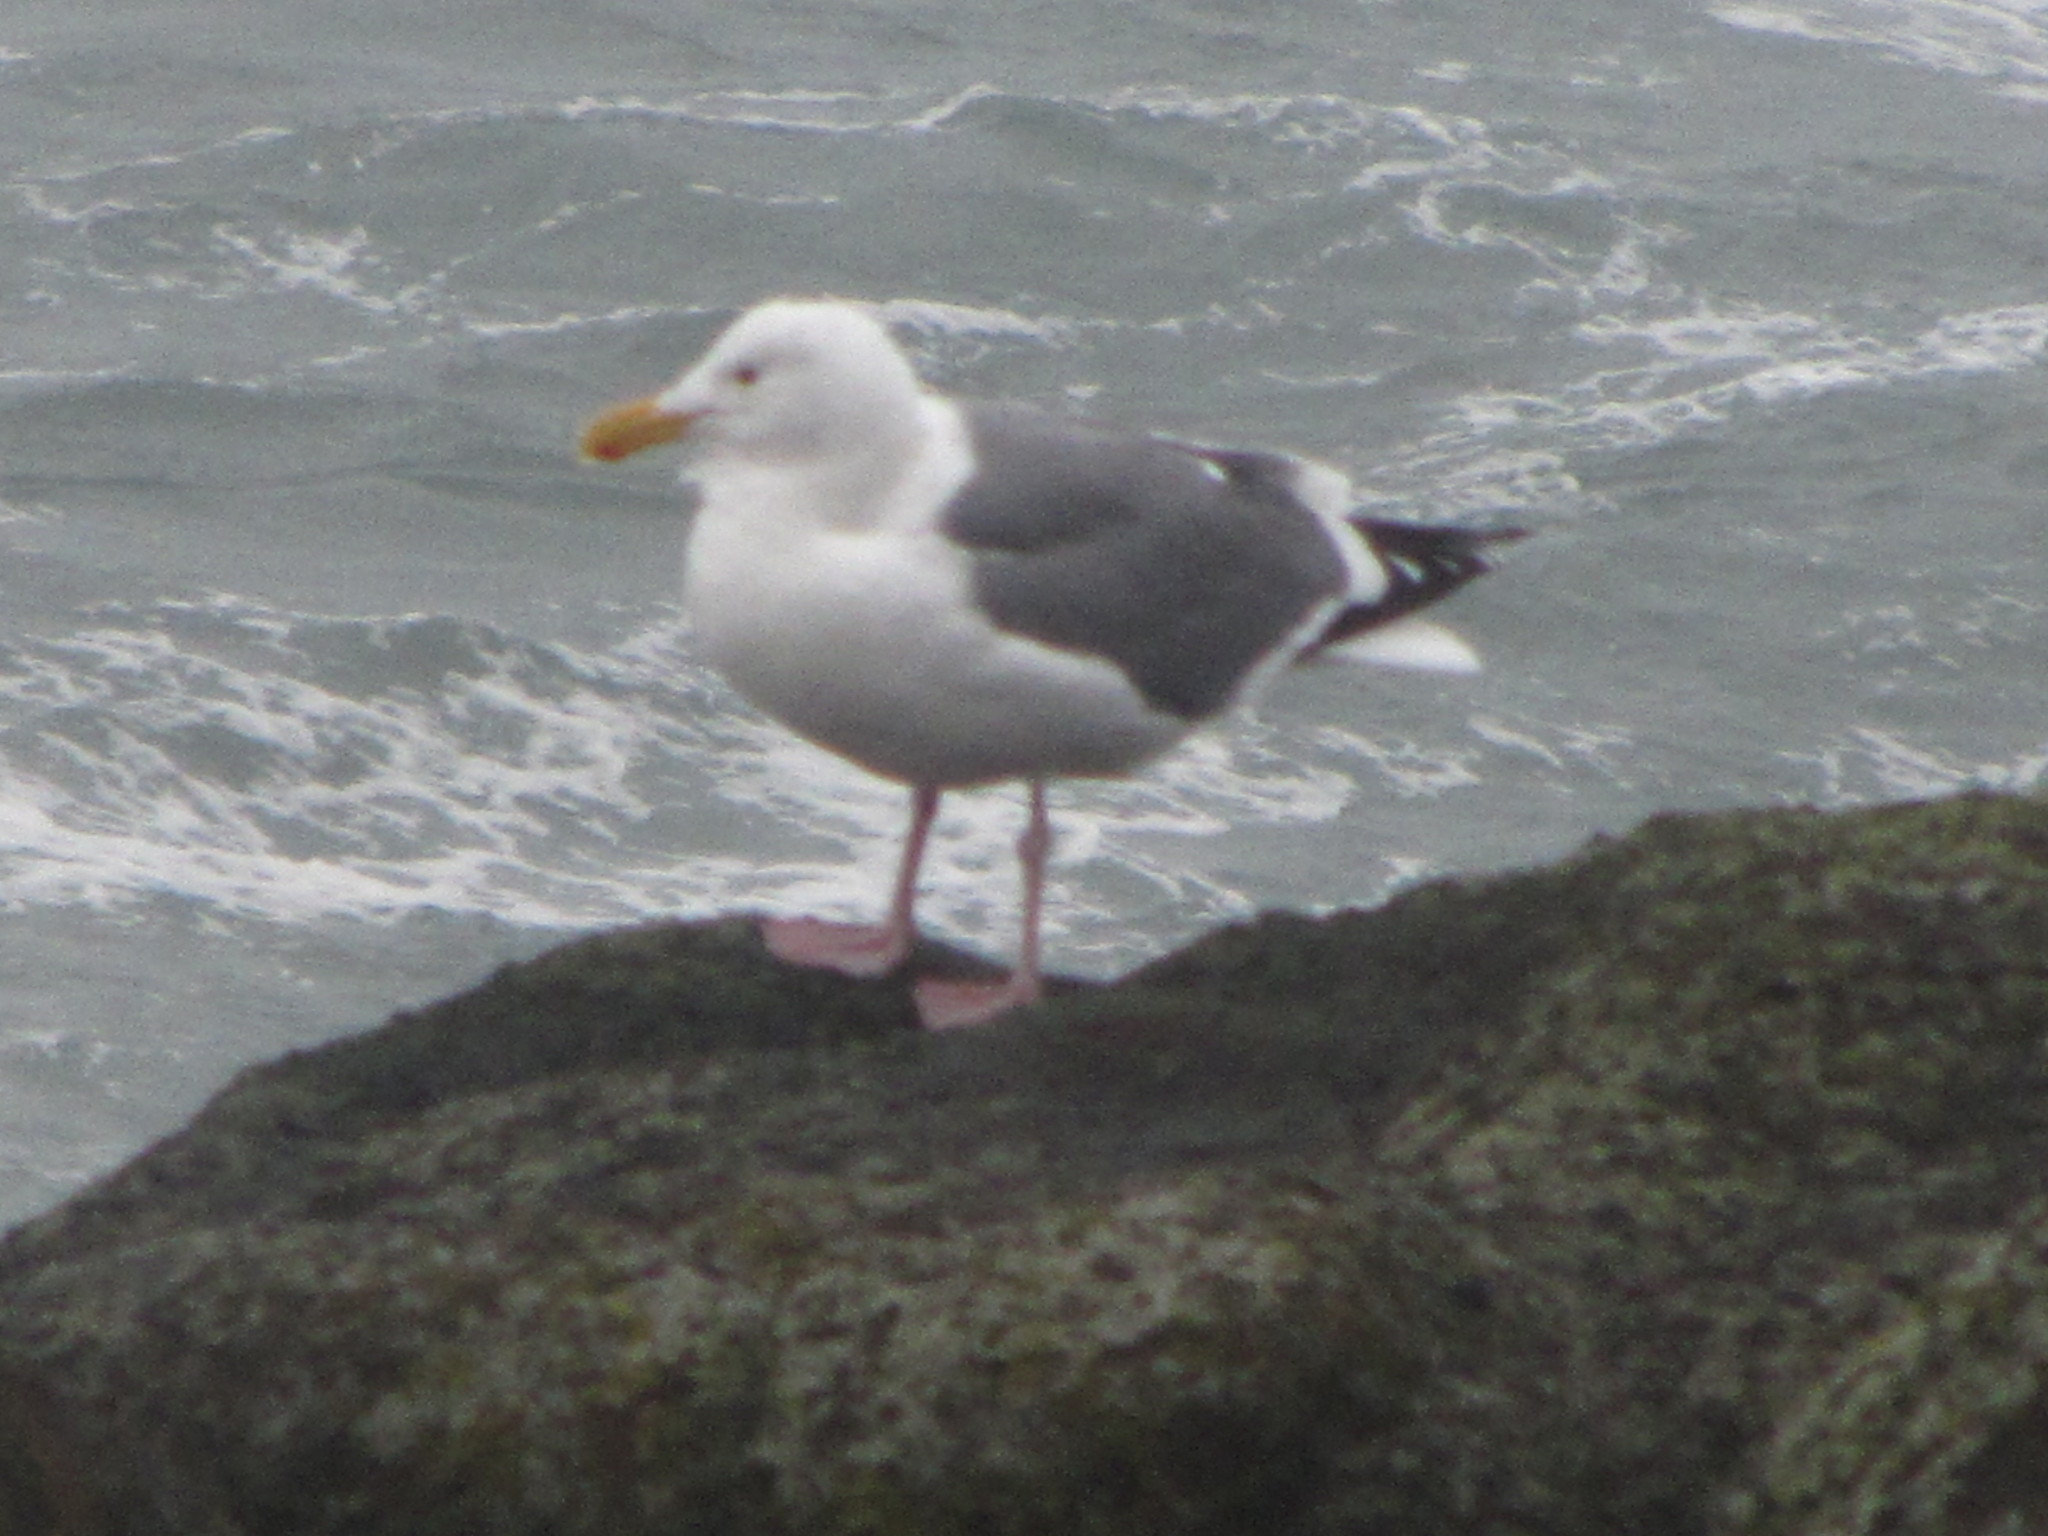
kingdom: Animalia
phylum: Chordata
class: Aves
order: Charadriiformes
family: Laridae
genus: Larus
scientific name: Larus occidentalis
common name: Western gull
